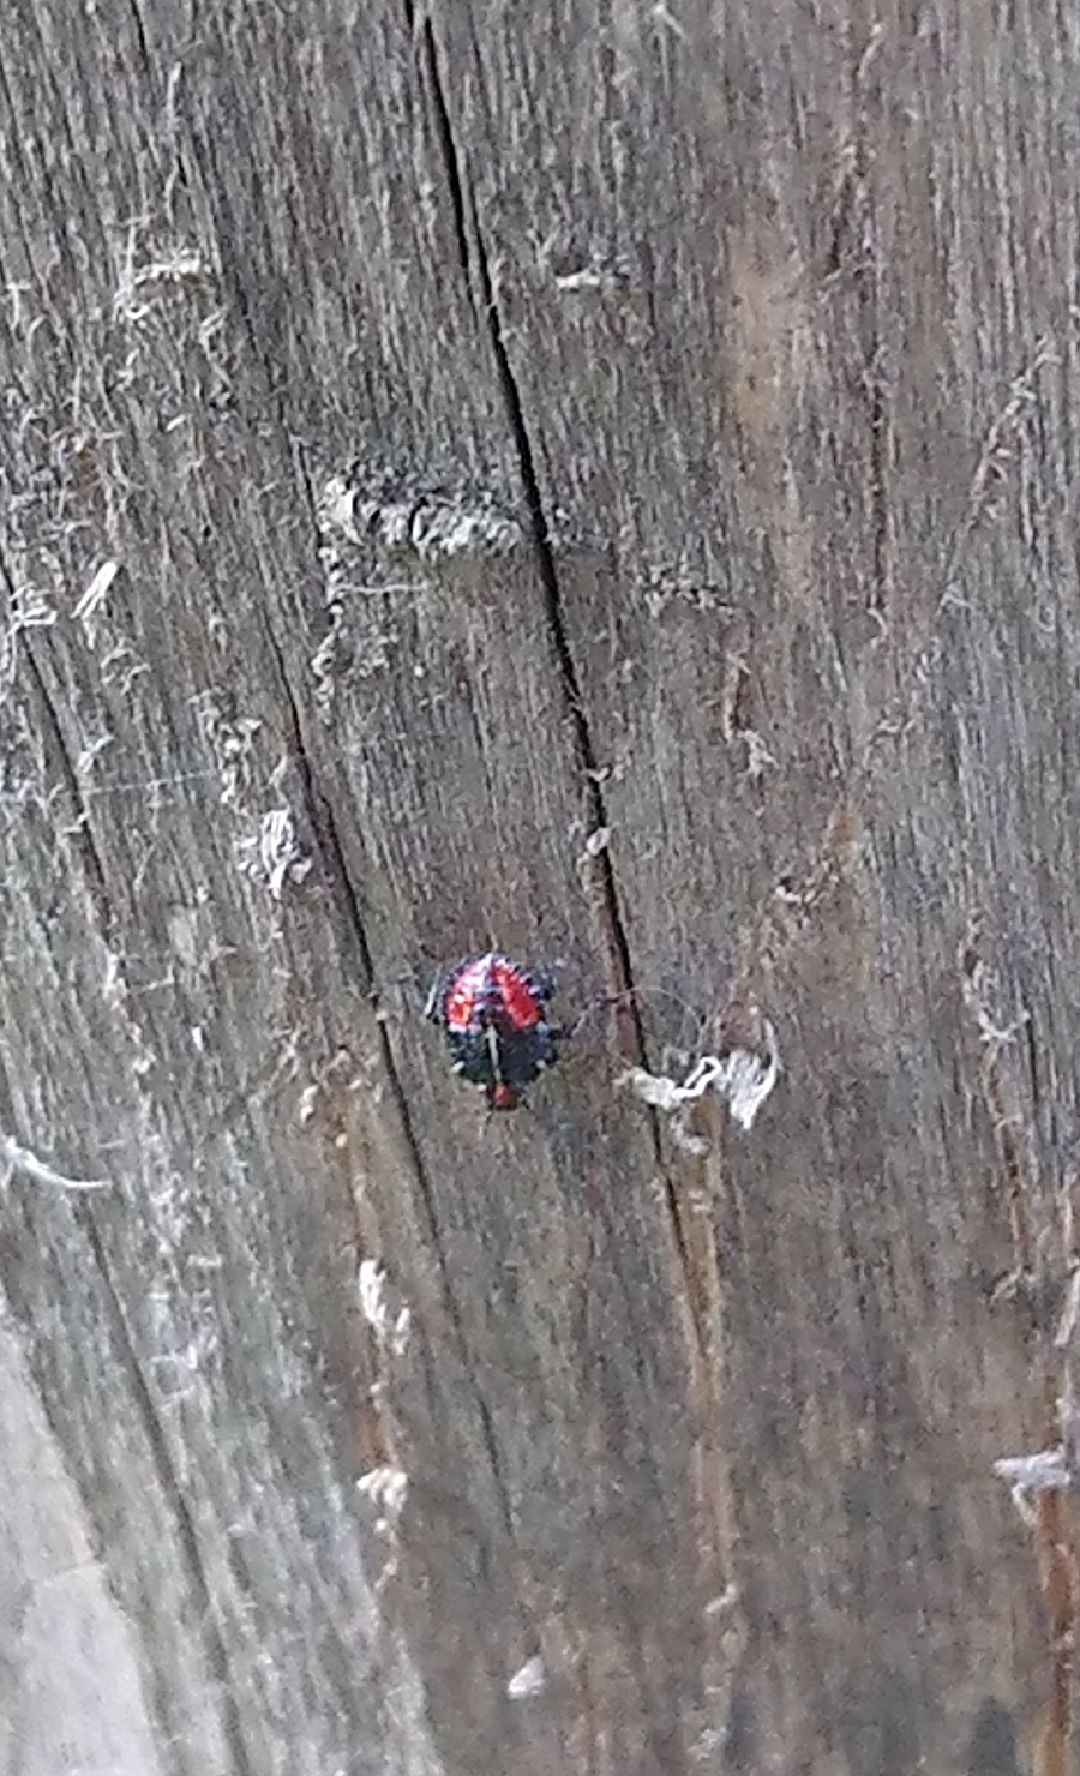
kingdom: Animalia
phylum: Arthropoda
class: Insecta
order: Hemiptera
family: Acanthosomatidae
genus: Sinopla
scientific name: Sinopla perpunctatus
